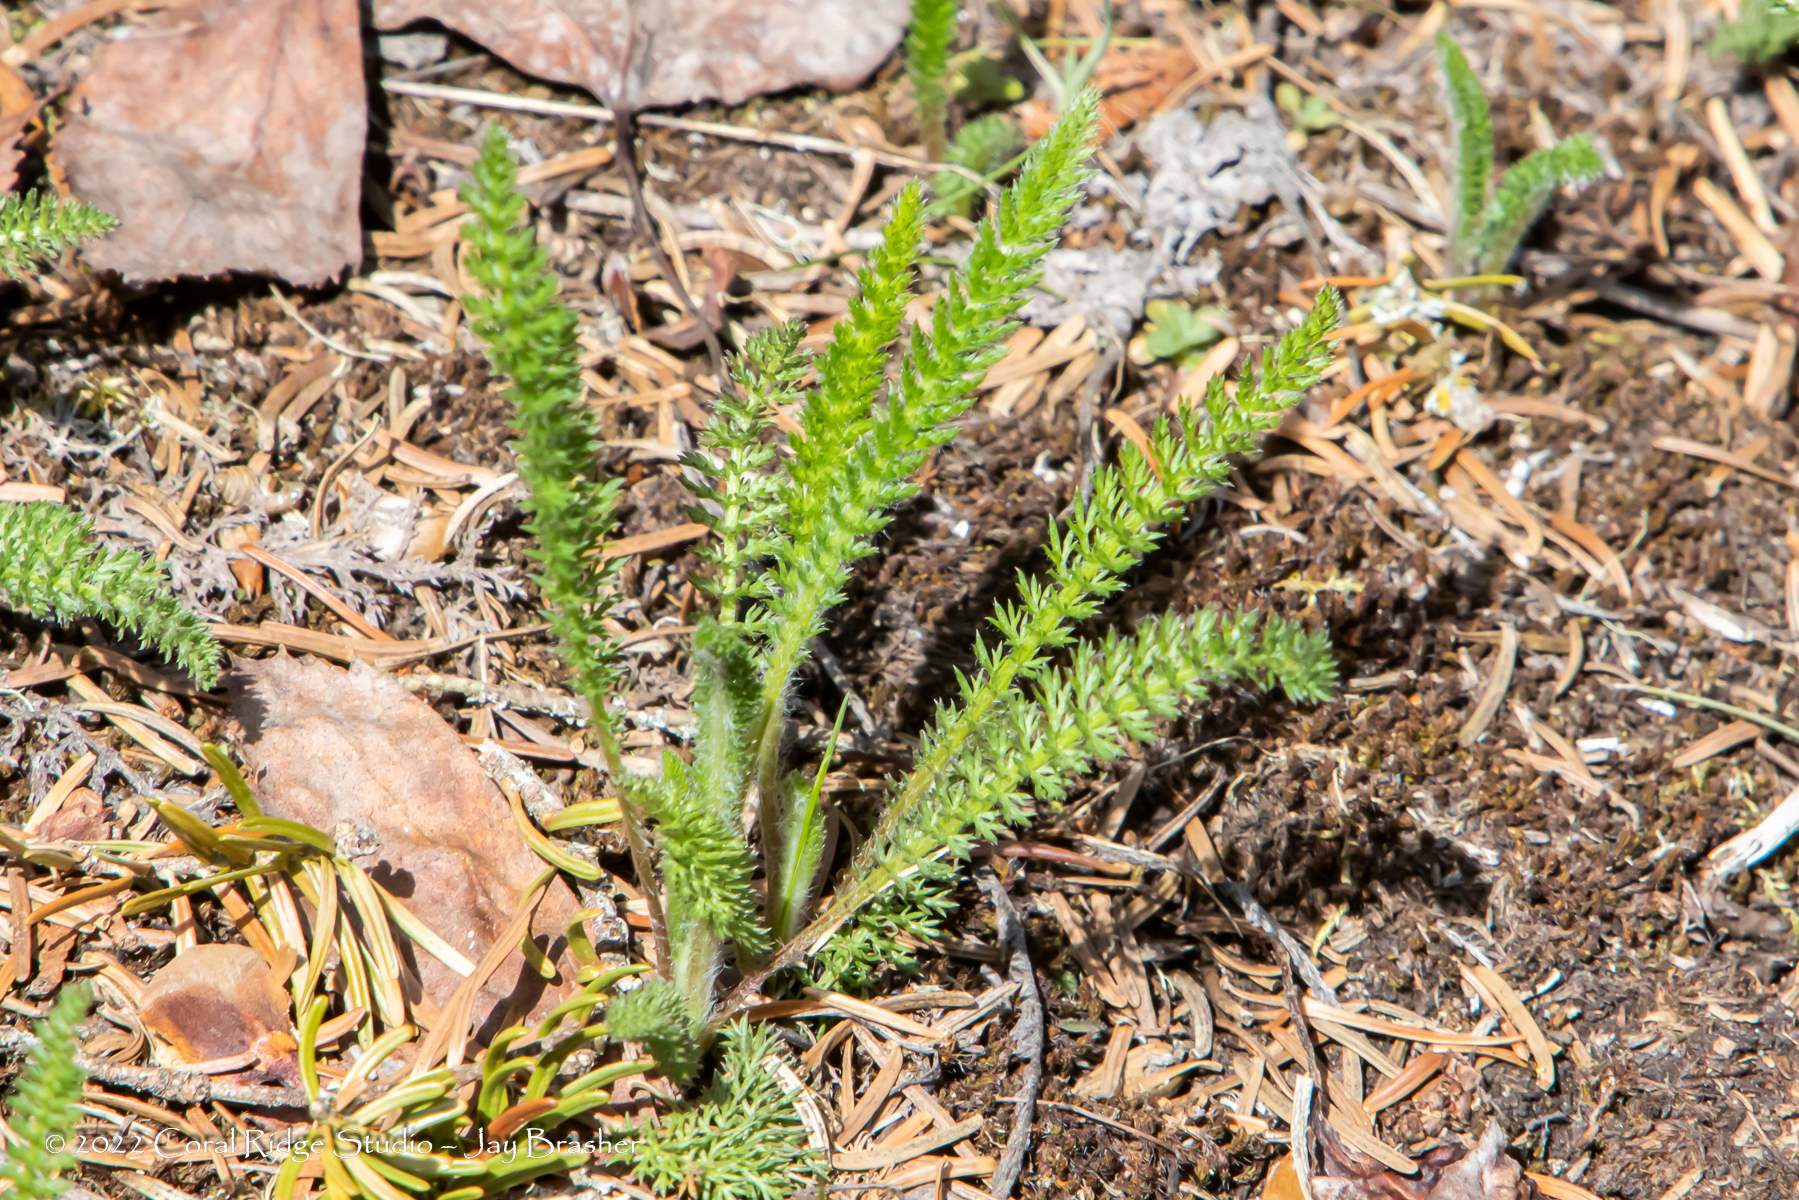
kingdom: Plantae
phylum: Tracheophyta
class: Magnoliopsida
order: Asterales
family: Asteraceae
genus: Achillea
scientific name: Achillea millefolium
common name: Yarrow
